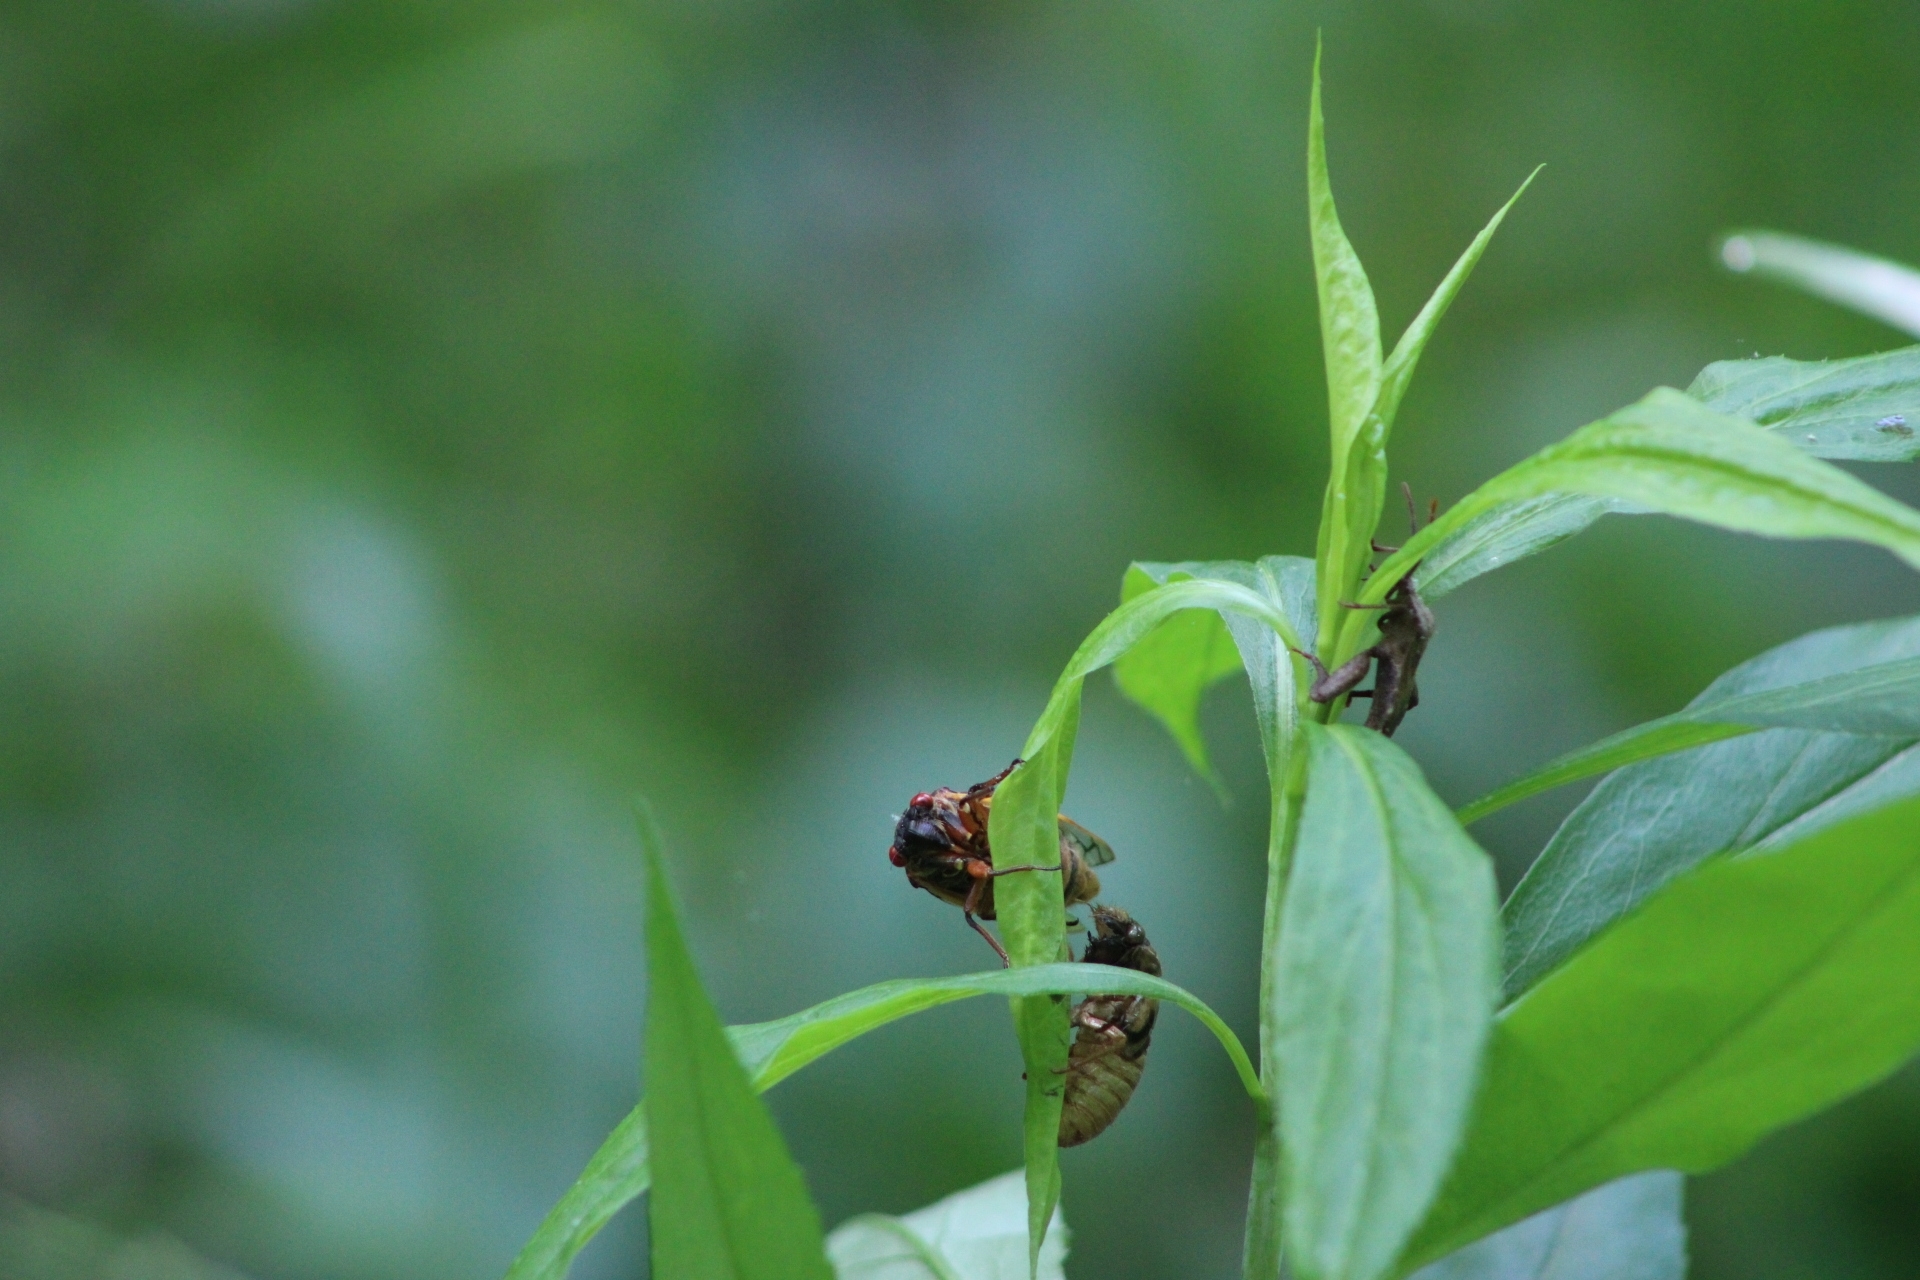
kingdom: Animalia
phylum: Arthropoda
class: Insecta
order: Hemiptera
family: Cicadidae
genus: Magicicada
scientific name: Magicicada septendecim
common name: Periodical cicada
